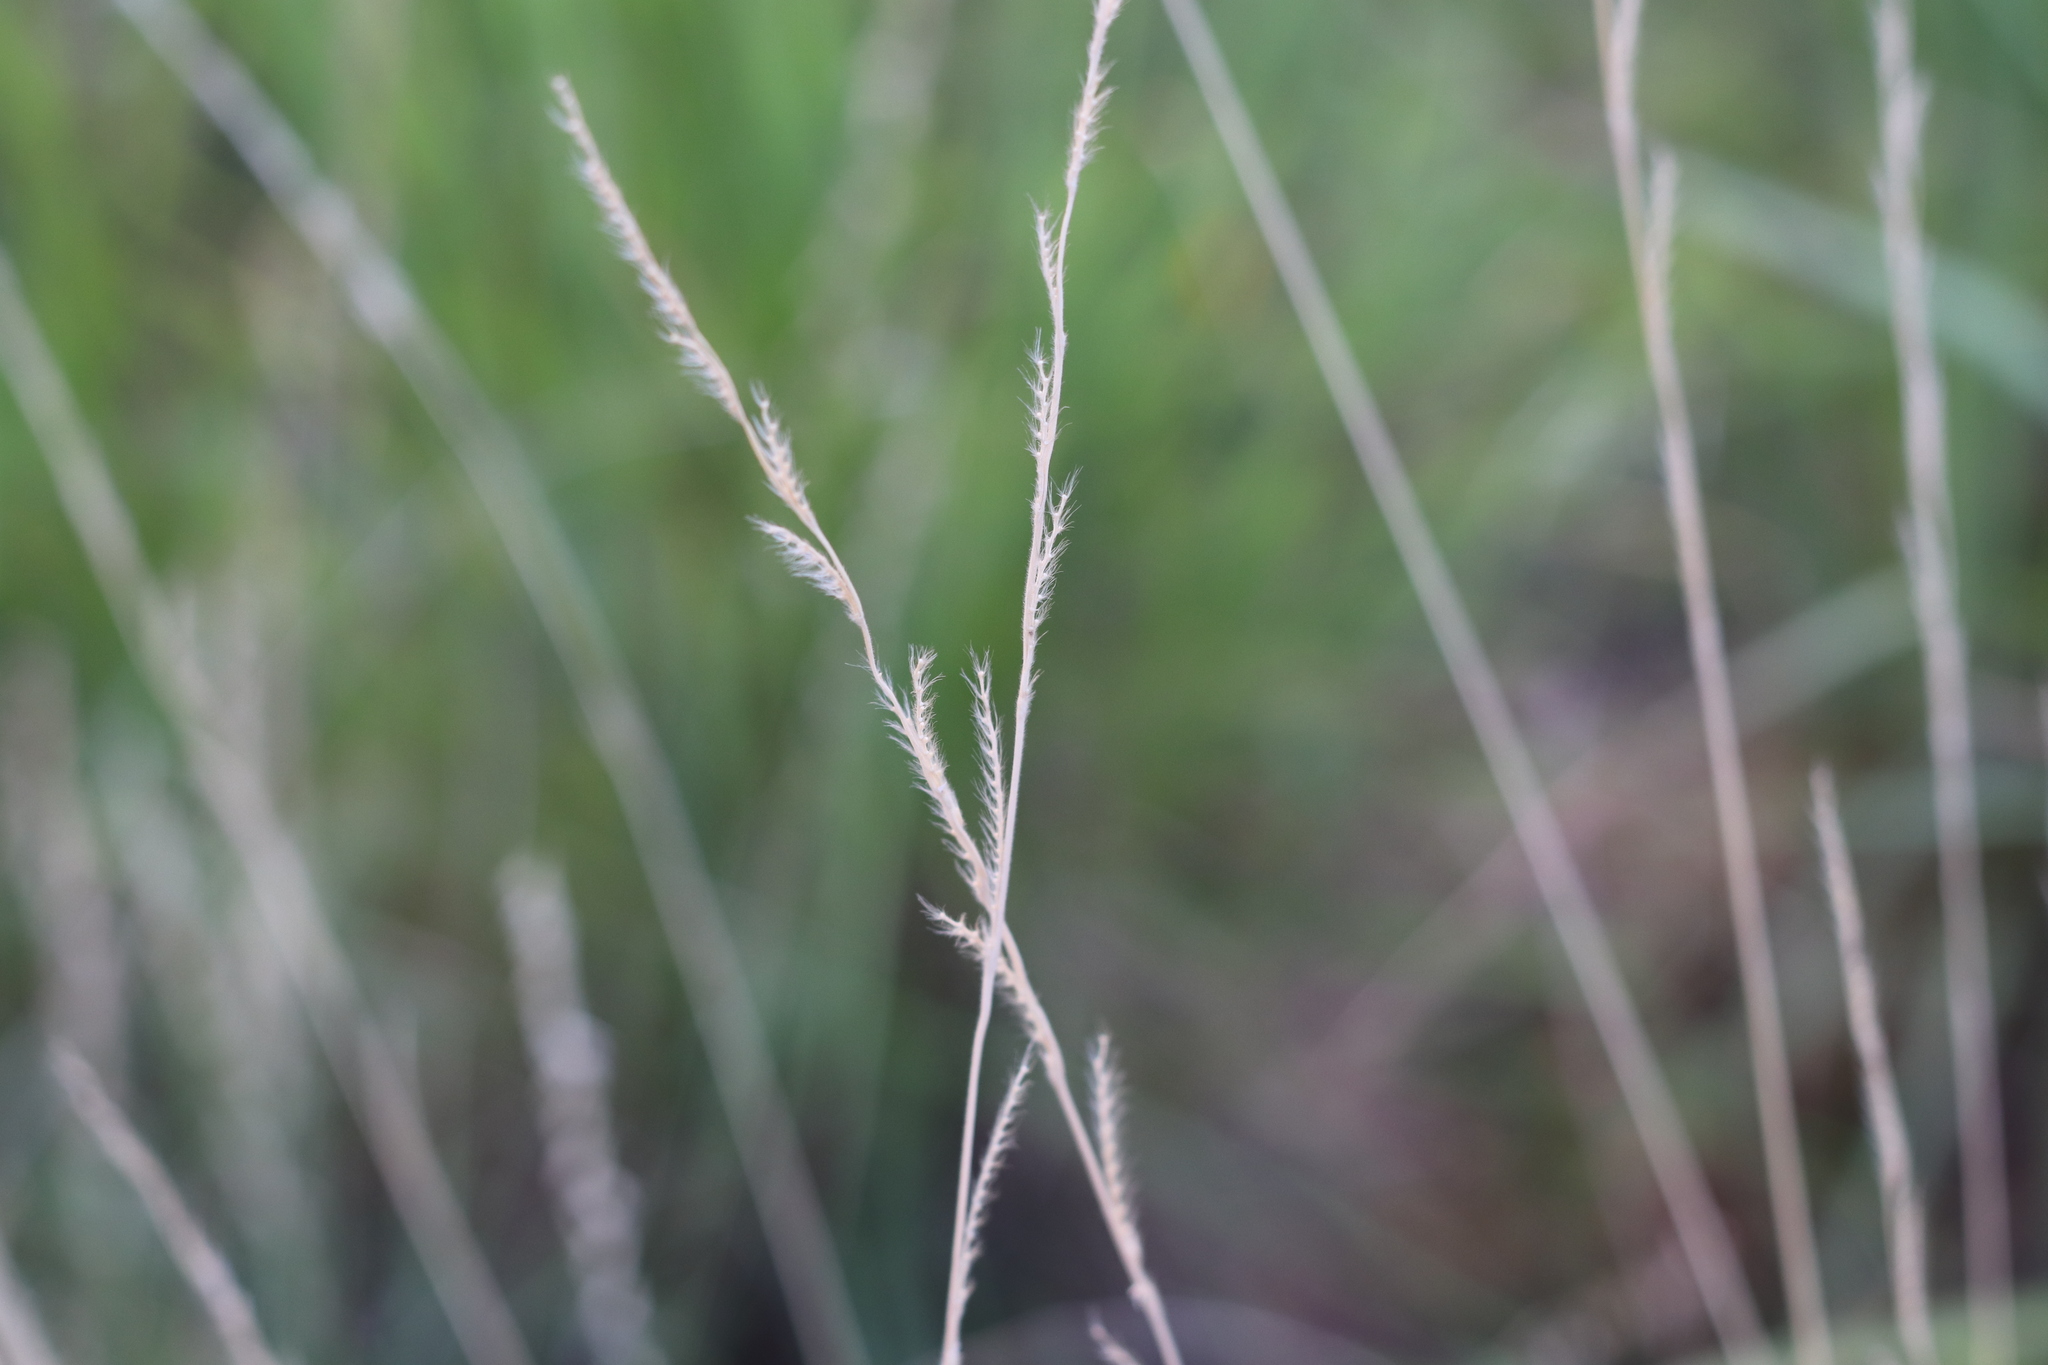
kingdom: Plantae
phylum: Tracheophyta
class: Liliopsida
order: Poales
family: Poaceae
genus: Eriochloa
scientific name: Eriochloa sericea
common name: Texas cup grass
